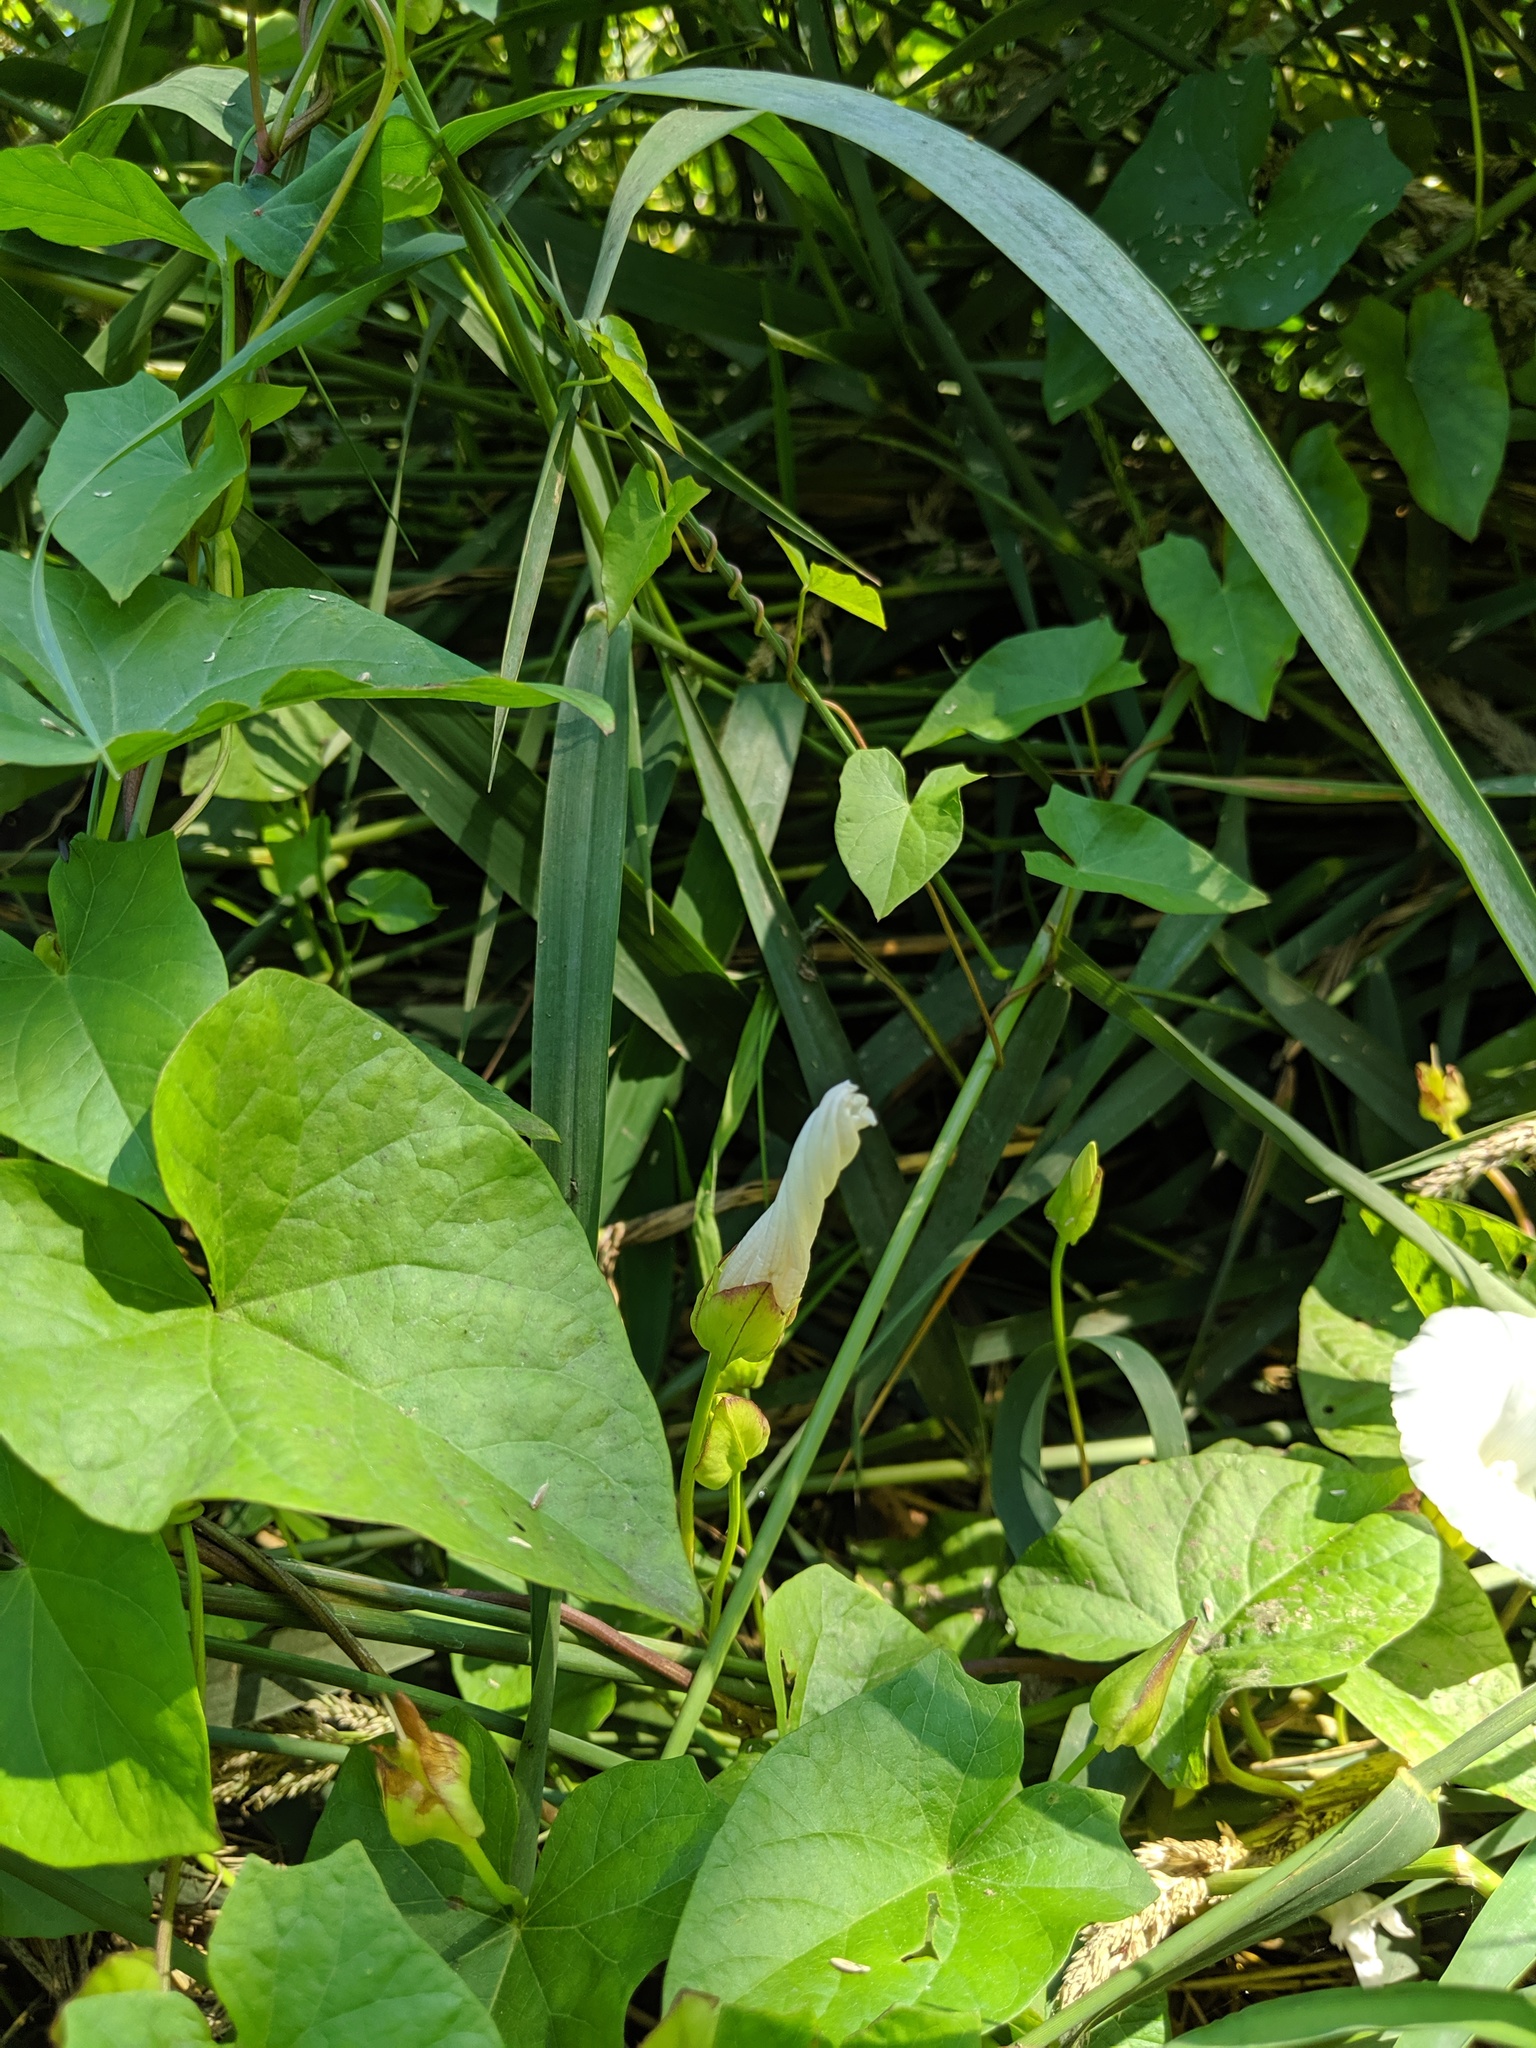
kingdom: Plantae
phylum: Tracheophyta
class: Magnoliopsida
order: Solanales
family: Convolvulaceae
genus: Calystegia
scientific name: Calystegia sepium
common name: Hedge bindweed
